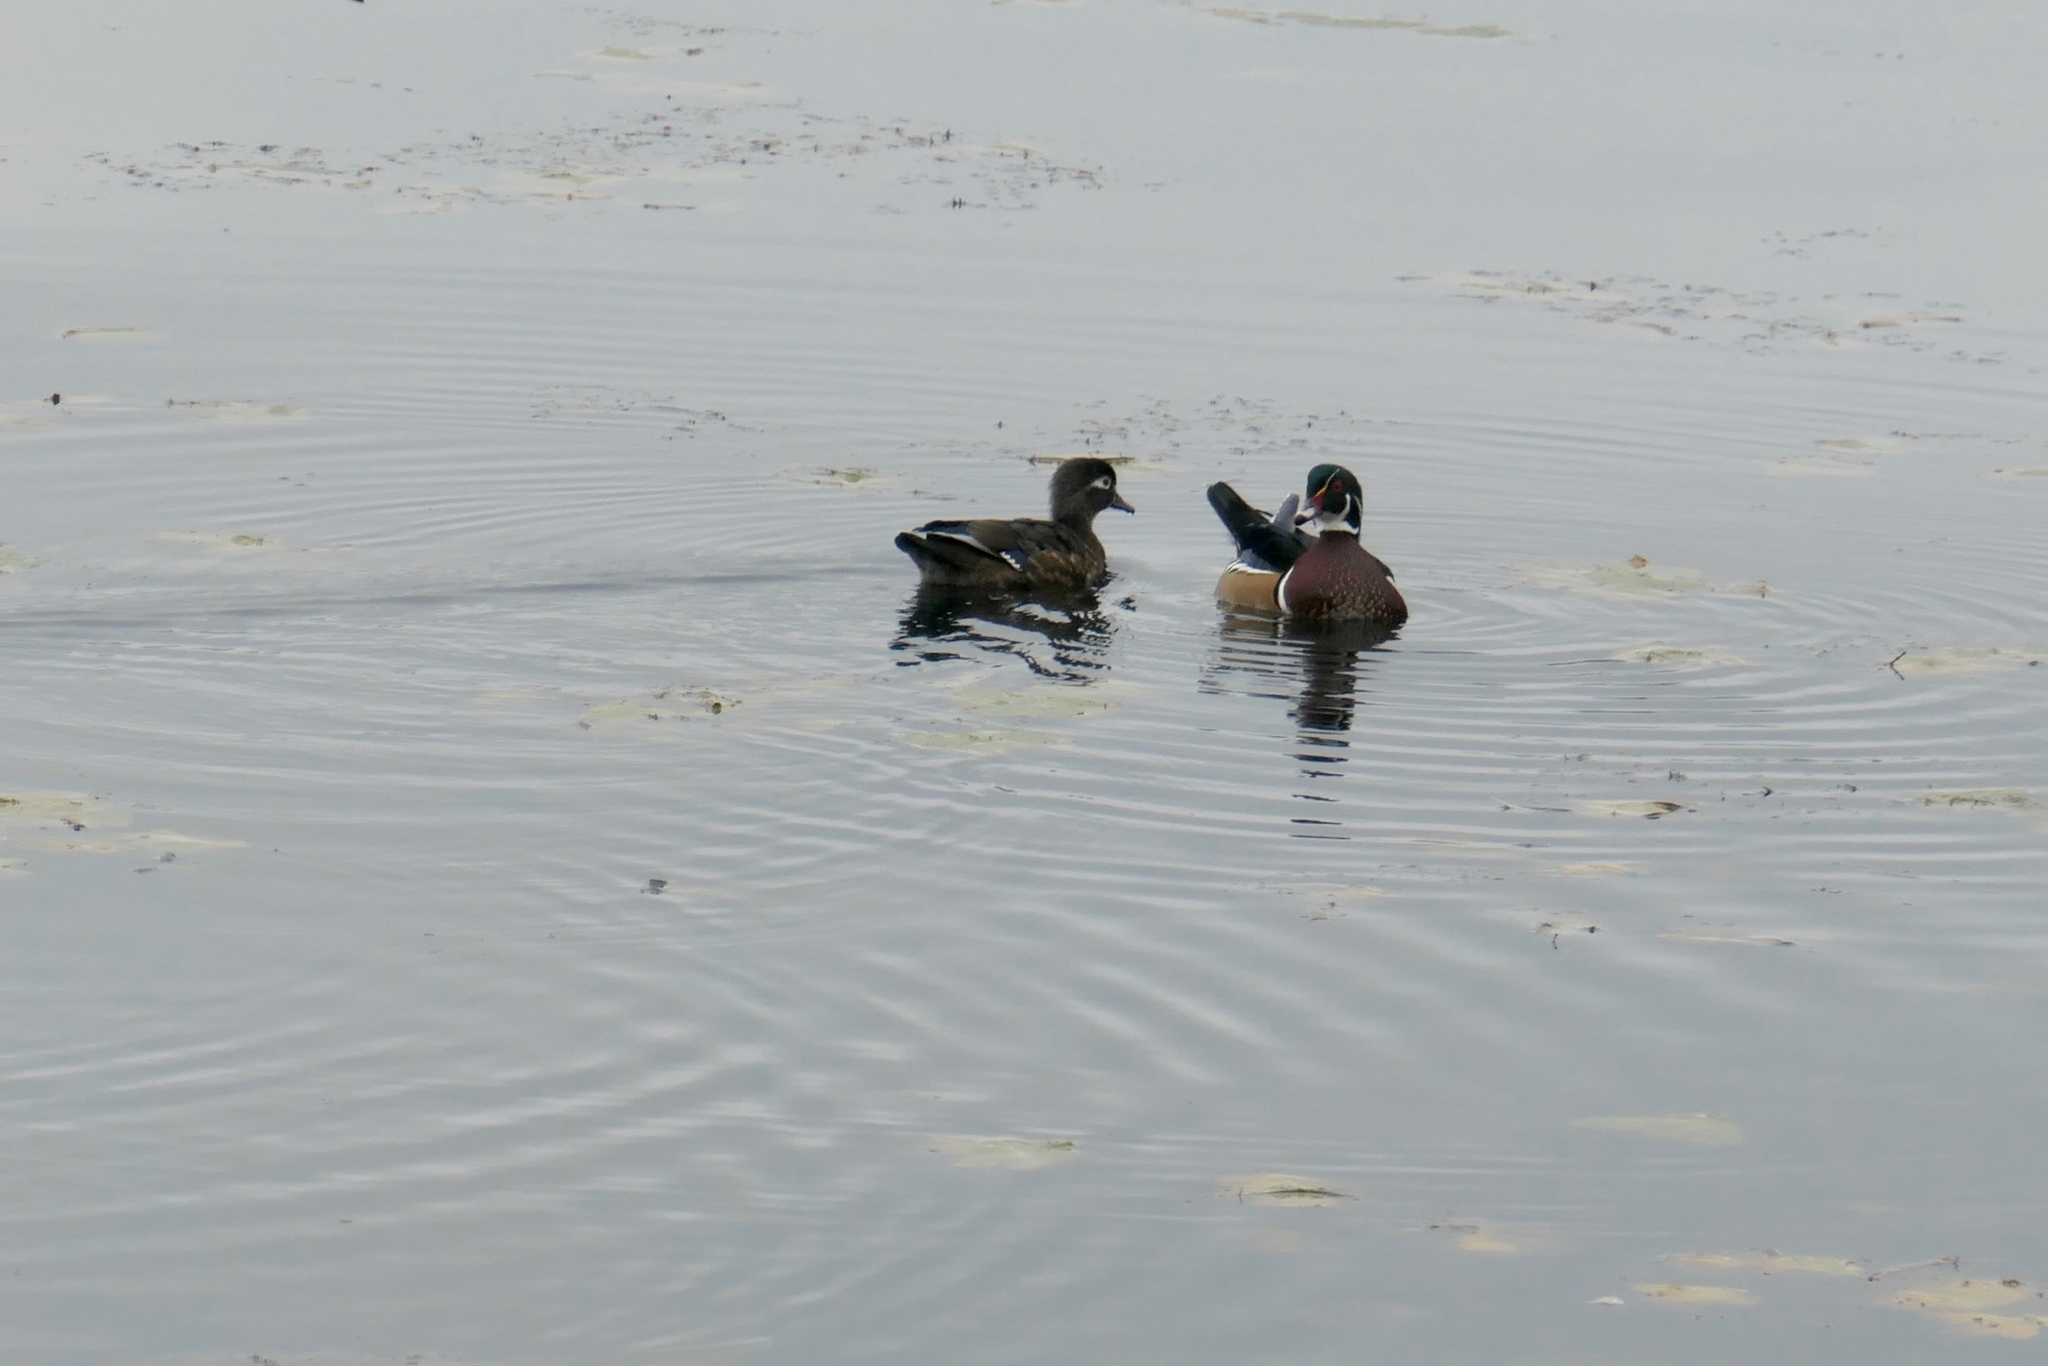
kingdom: Animalia
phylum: Chordata
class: Aves
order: Anseriformes
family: Anatidae
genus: Aix
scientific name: Aix sponsa
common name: Wood duck
